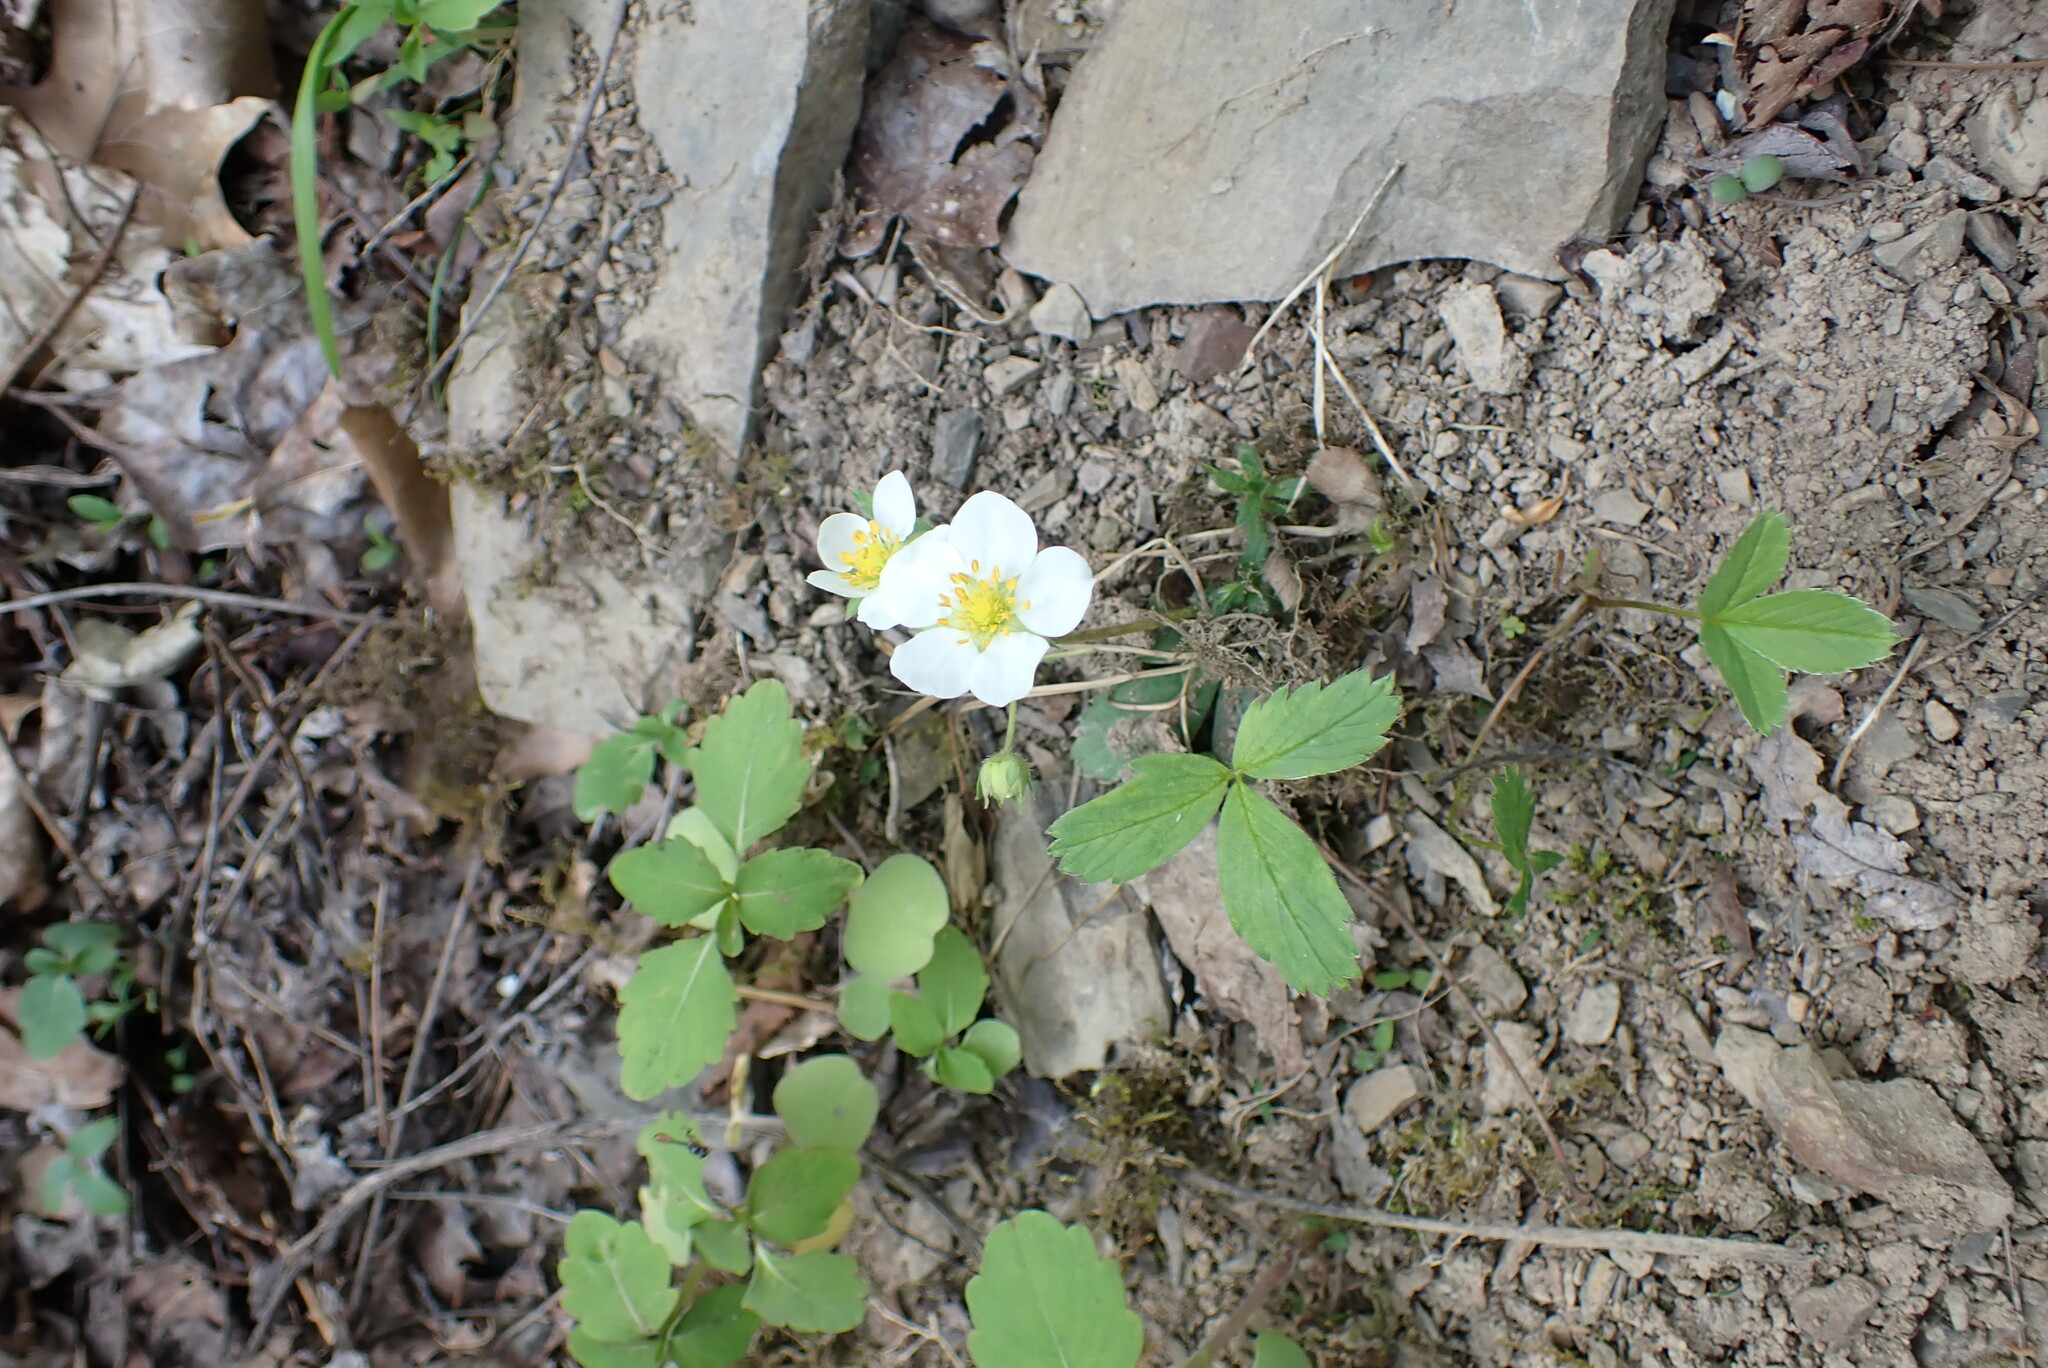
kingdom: Plantae
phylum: Tracheophyta
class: Magnoliopsida
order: Rosales
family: Rosaceae
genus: Fragaria
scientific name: Fragaria virginiana
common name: Thickleaved wild strawberry
